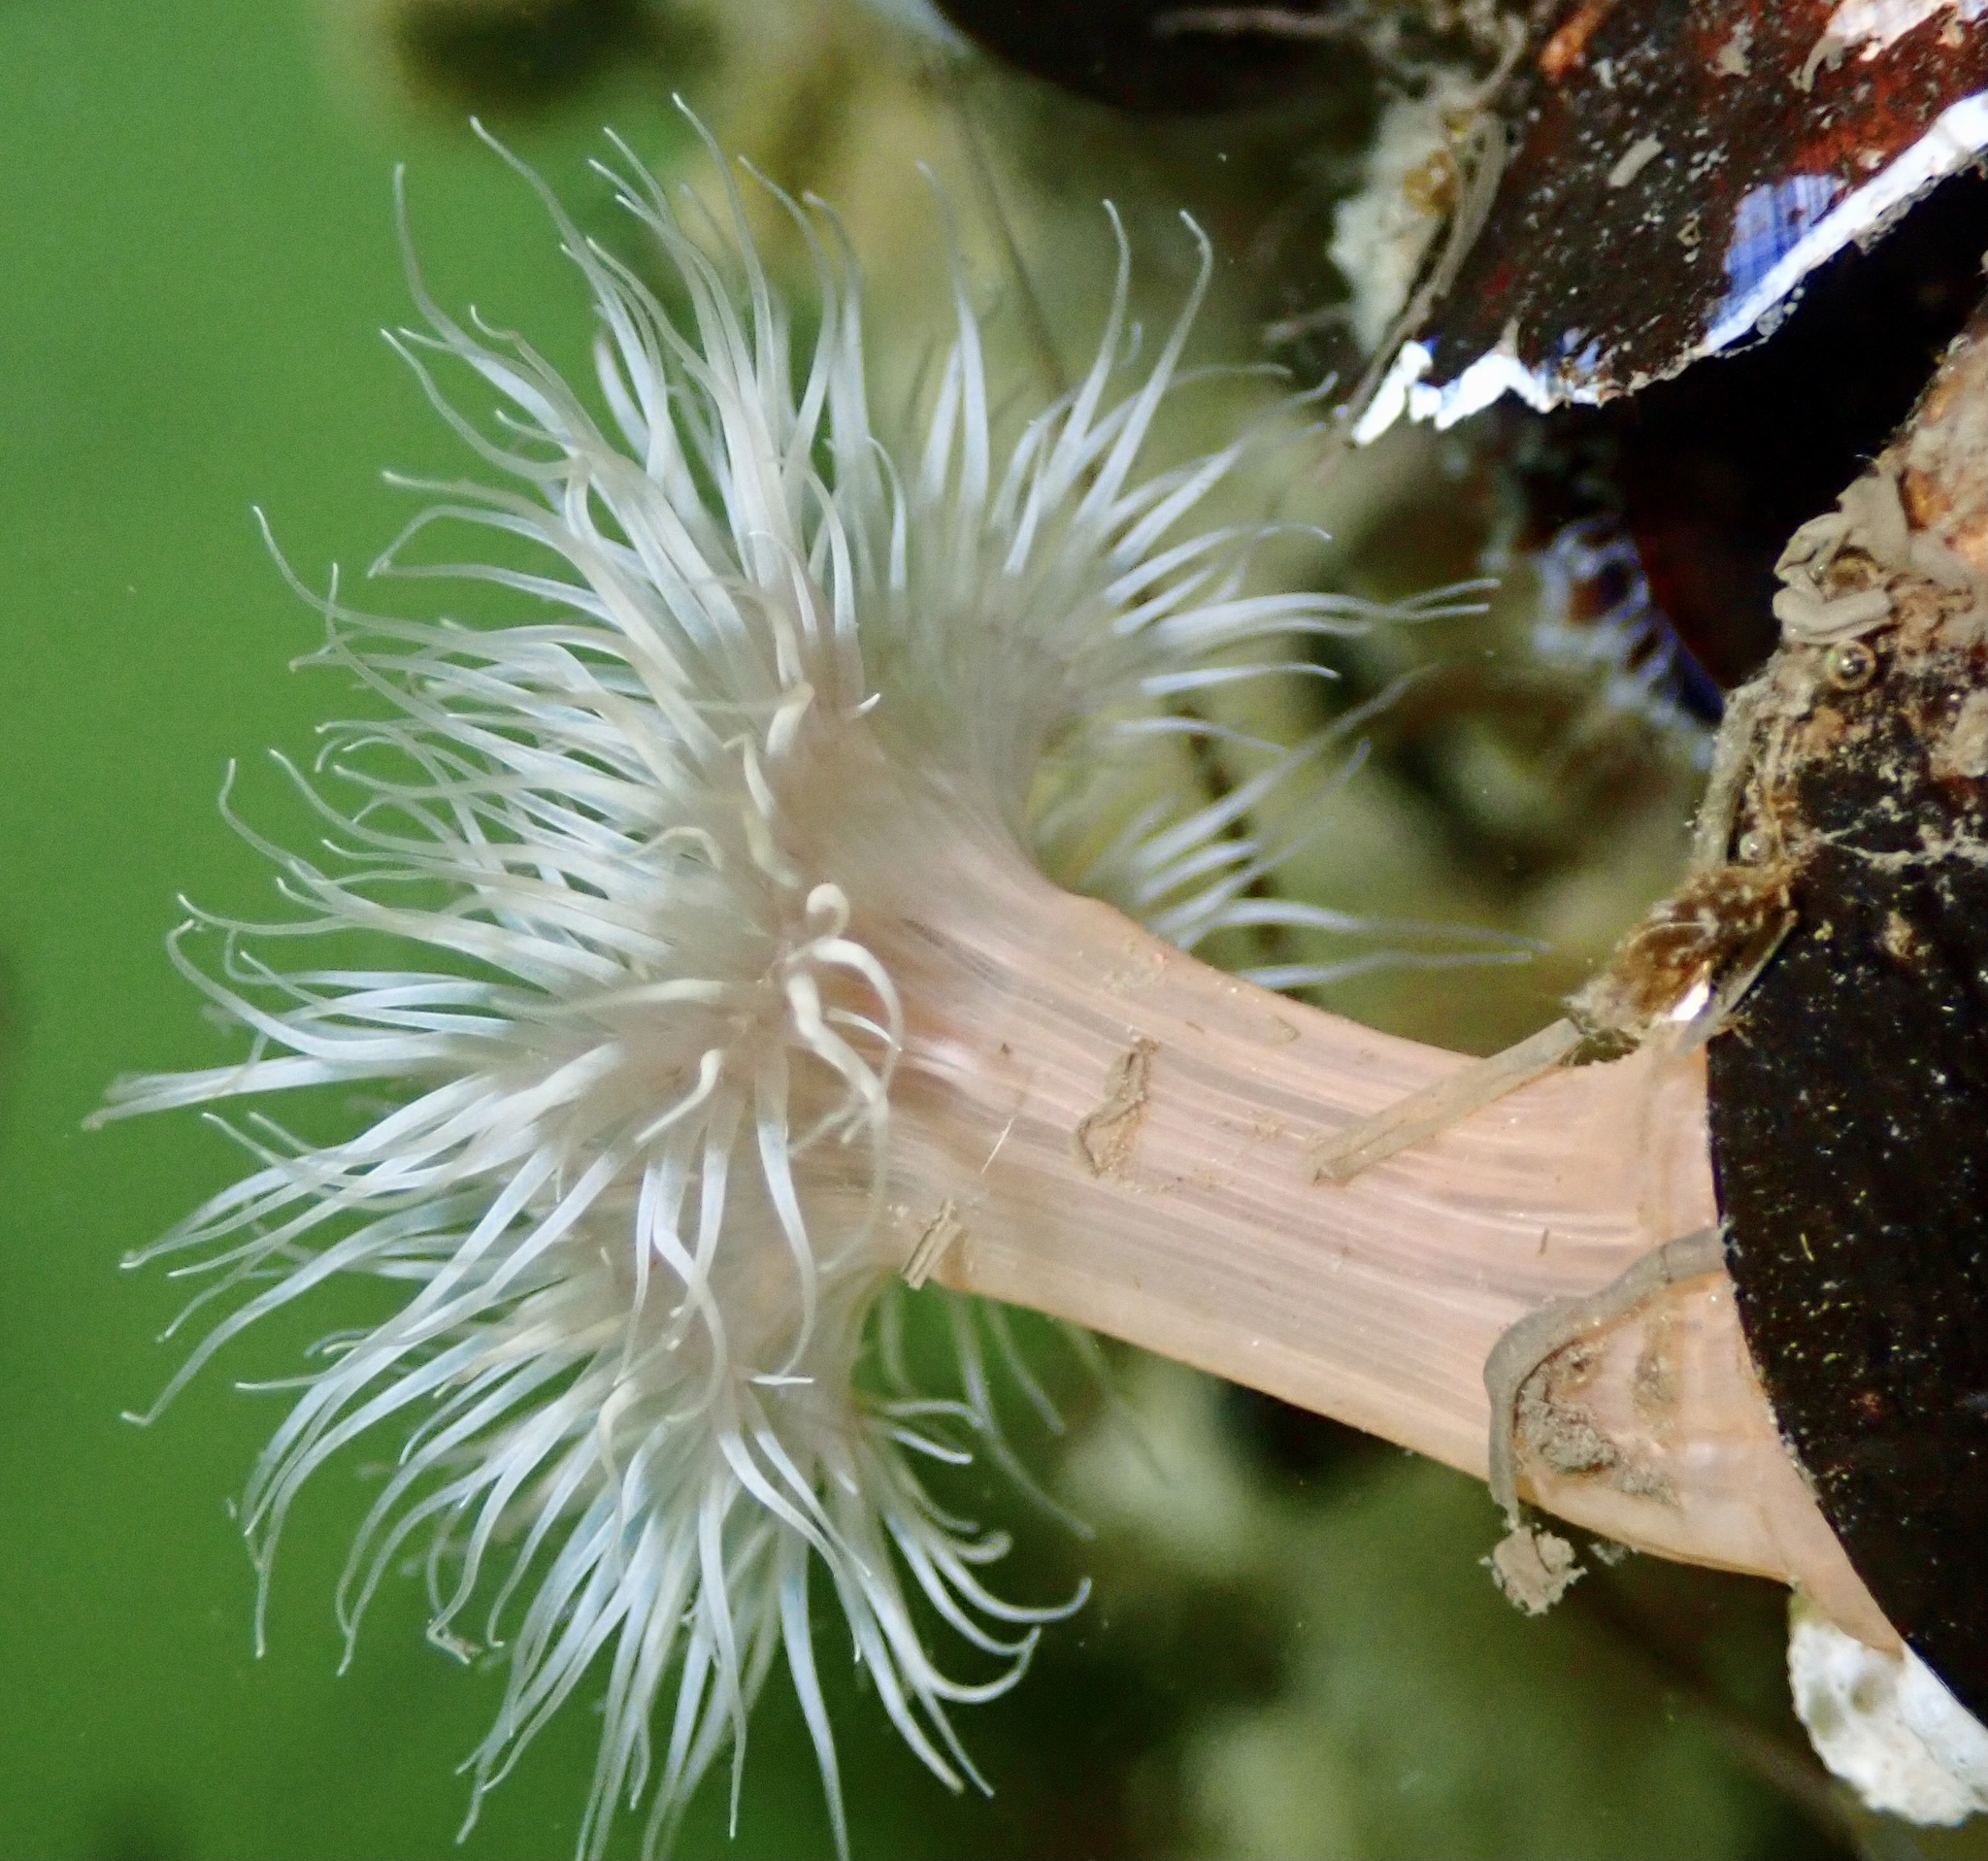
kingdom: Animalia
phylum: Cnidaria
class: Anthozoa
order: Actiniaria
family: Metridiidae
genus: Metridium
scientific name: Metridium senile
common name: Clonal plumose anemone
